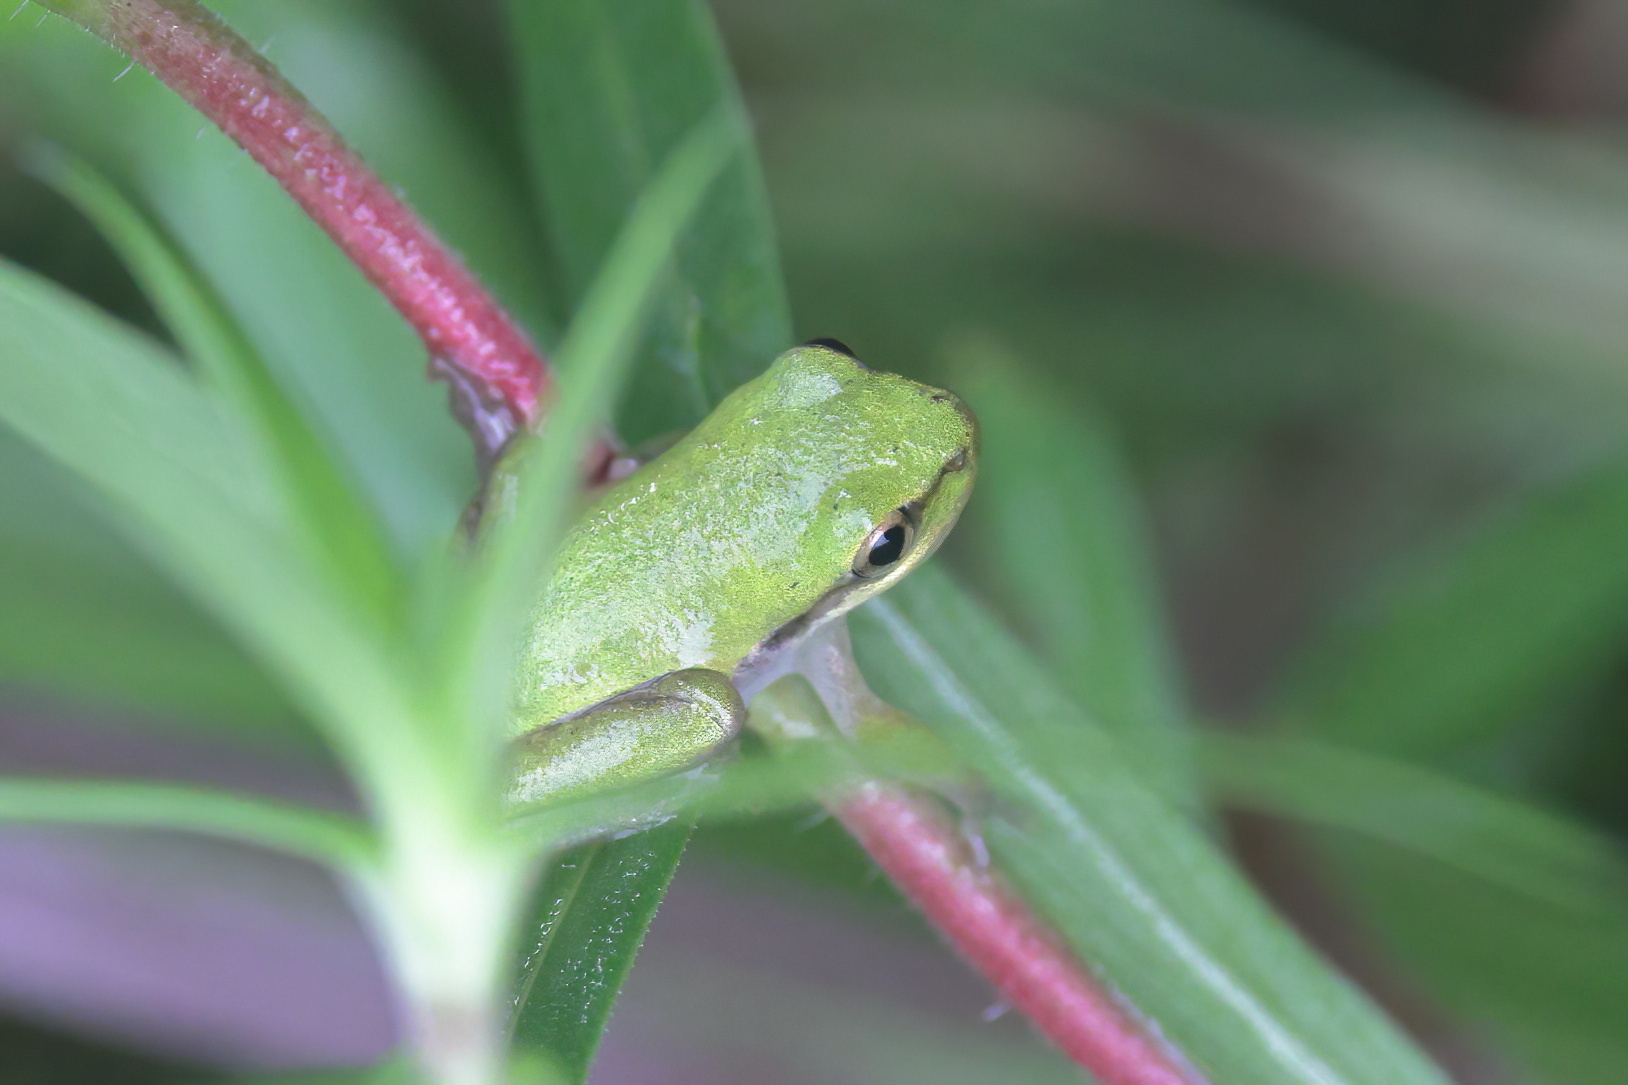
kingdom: Animalia
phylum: Chordata
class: Amphibia
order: Anura
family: Hylidae
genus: Dryophytes
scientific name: Dryophytes squirellus
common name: Squirrel treefrog
